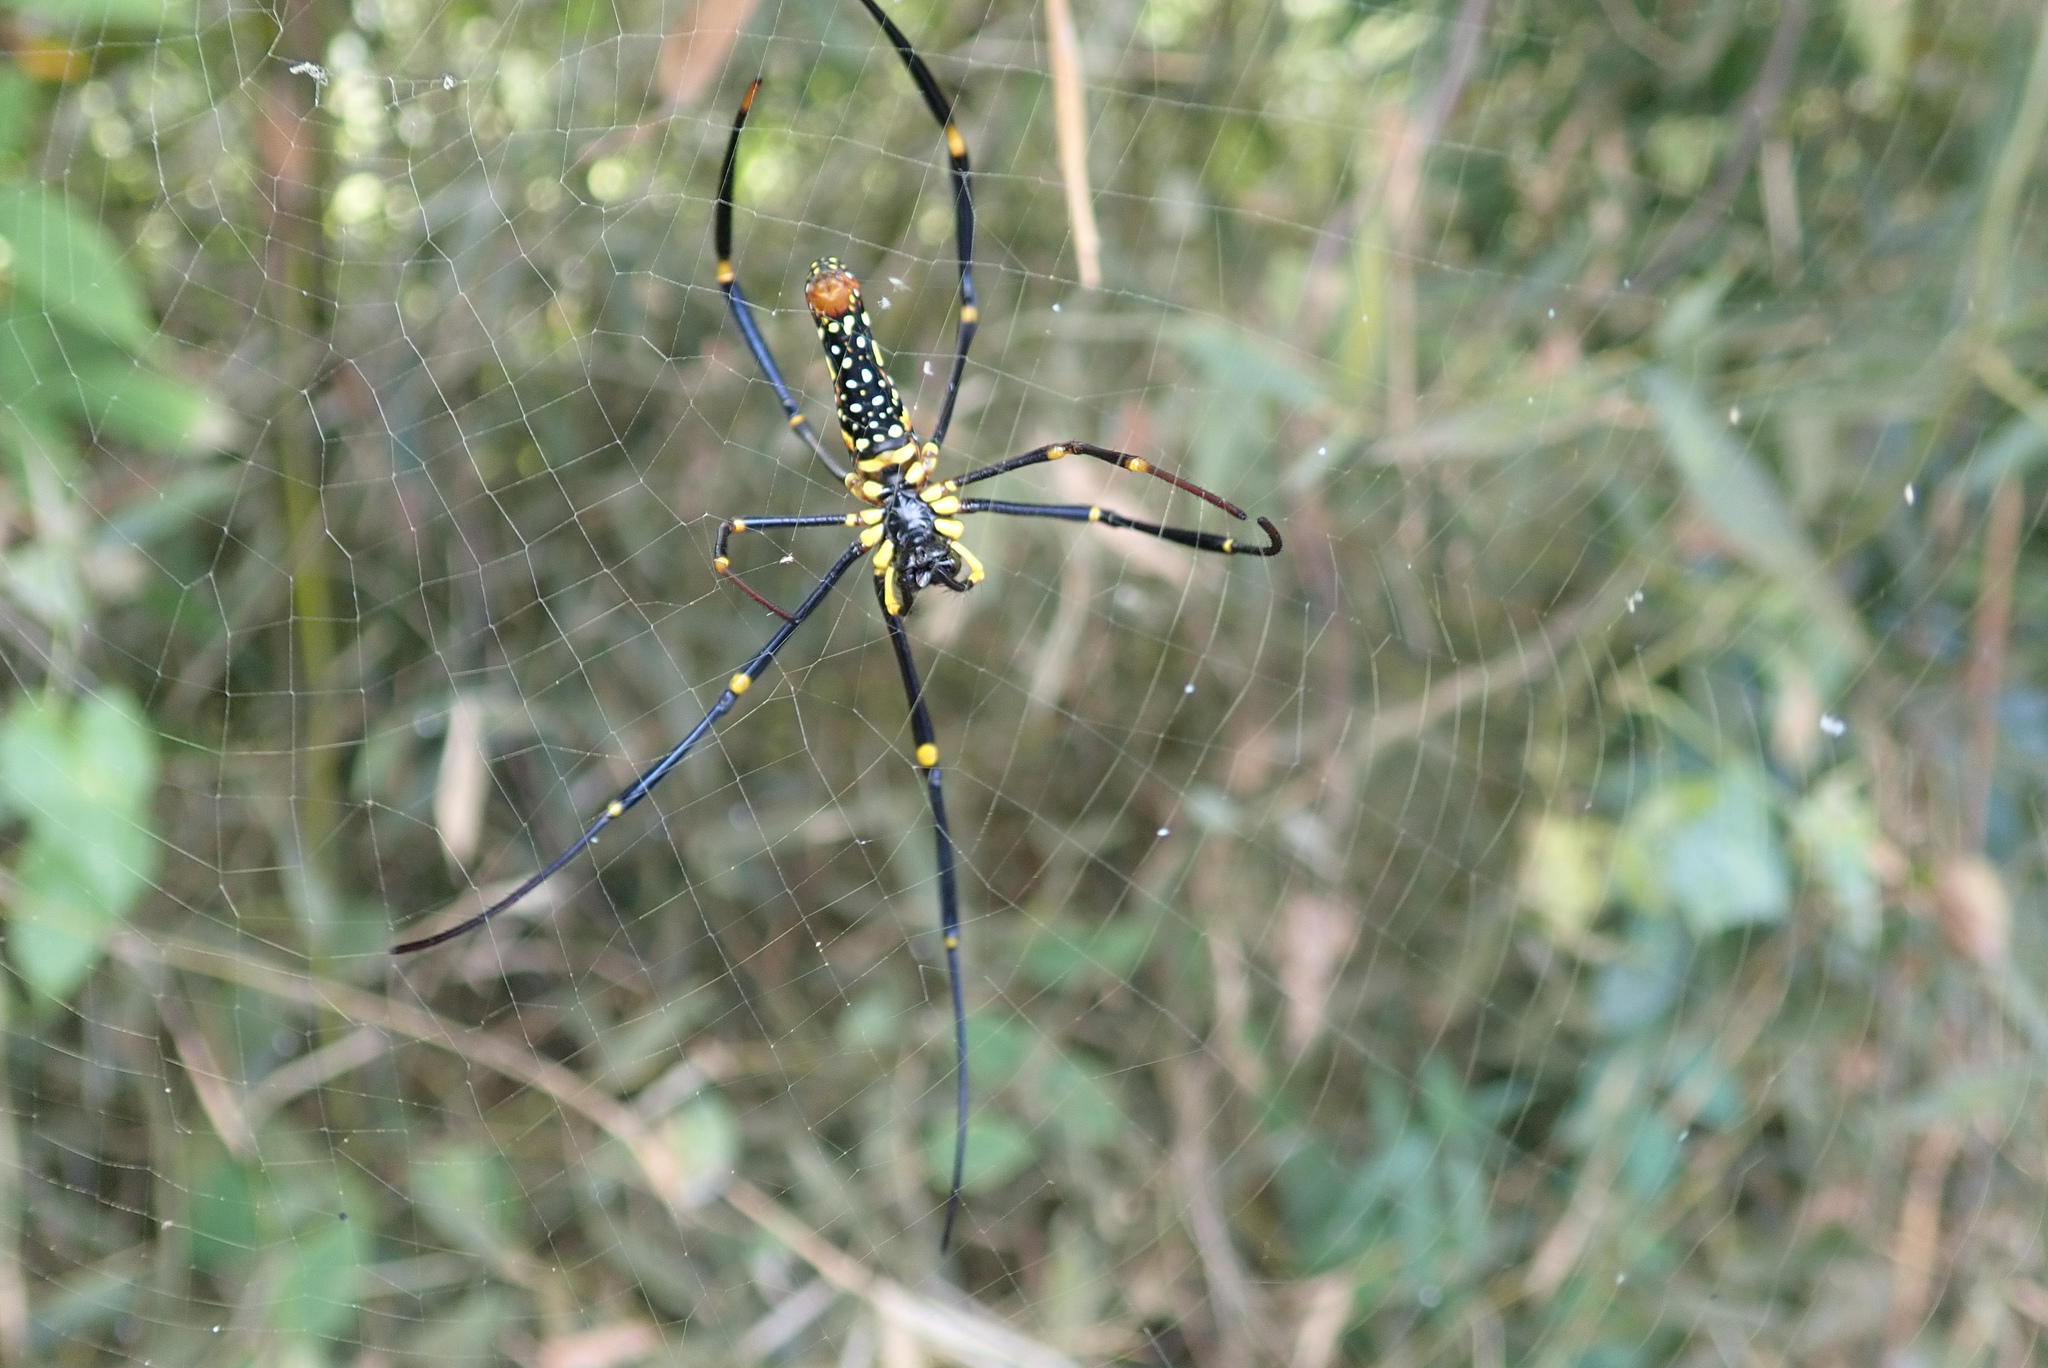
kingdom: Animalia
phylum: Arthropoda
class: Arachnida
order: Araneae
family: Araneidae
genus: Nephila
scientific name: Nephila pilipes
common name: Giant golden orb weaver
